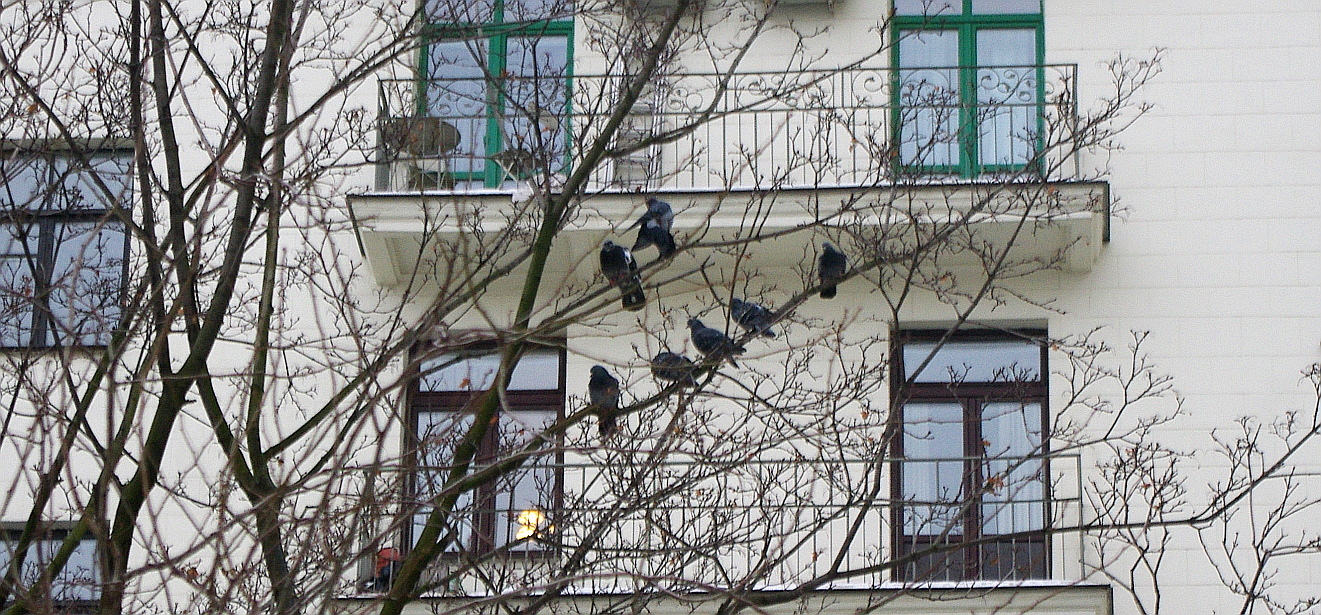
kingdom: Animalia
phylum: Chordata
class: Aves
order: Columbiformes
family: Columbidae
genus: Columba
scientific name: Columba livia
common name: Rock pigeon
